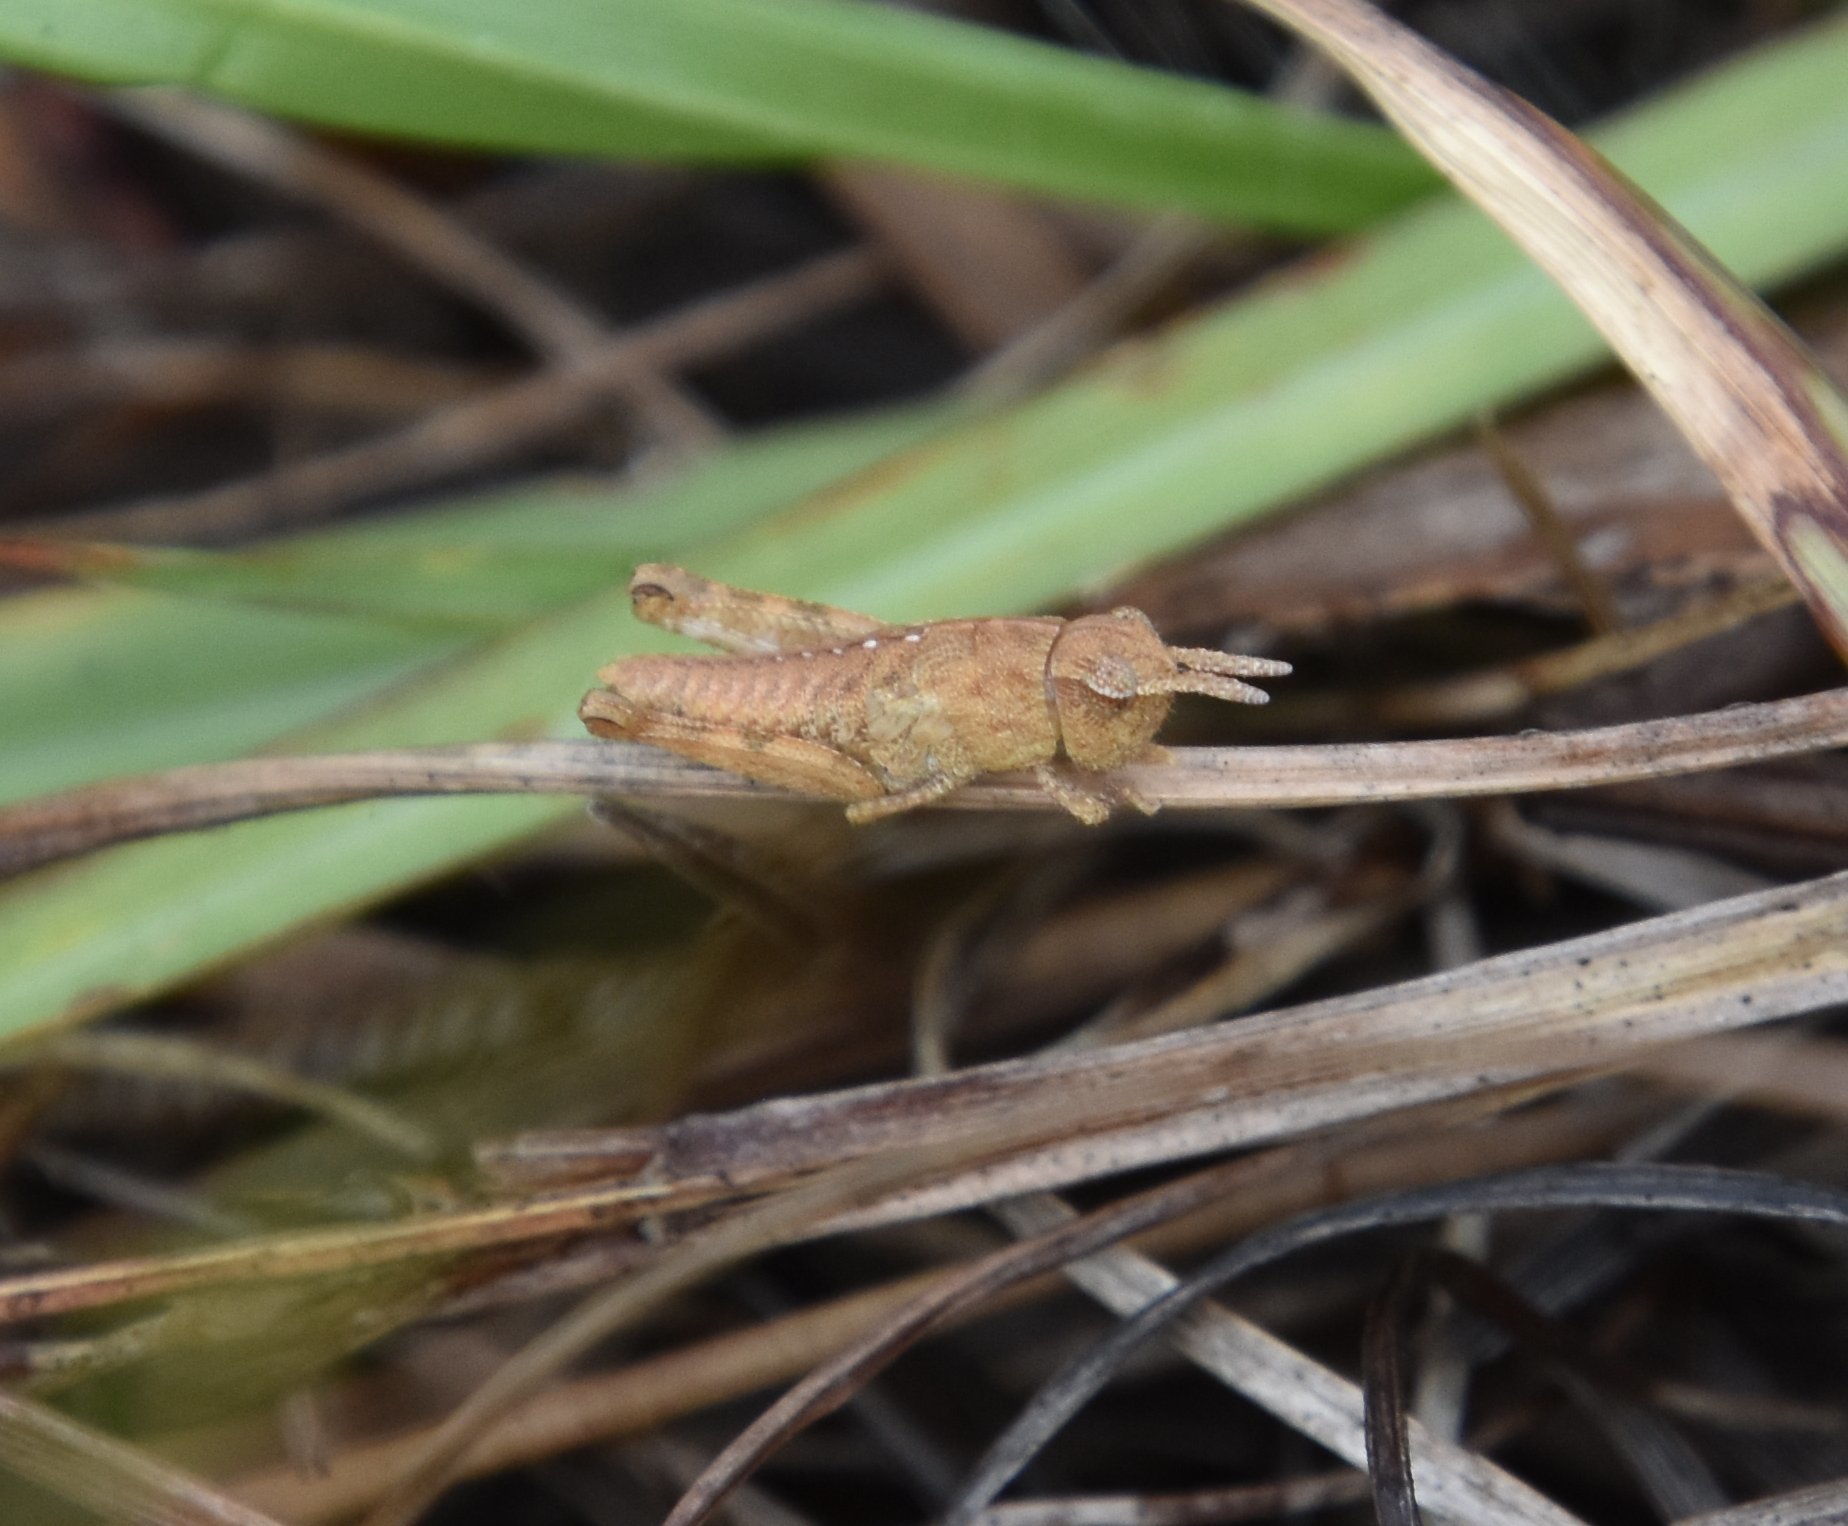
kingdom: Animalia
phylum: Arthropoda
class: Insecta
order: Orthoptera
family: Acrididae
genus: Chortophaga
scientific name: Chortophaga australior
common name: Southern green-striped grasshopper
